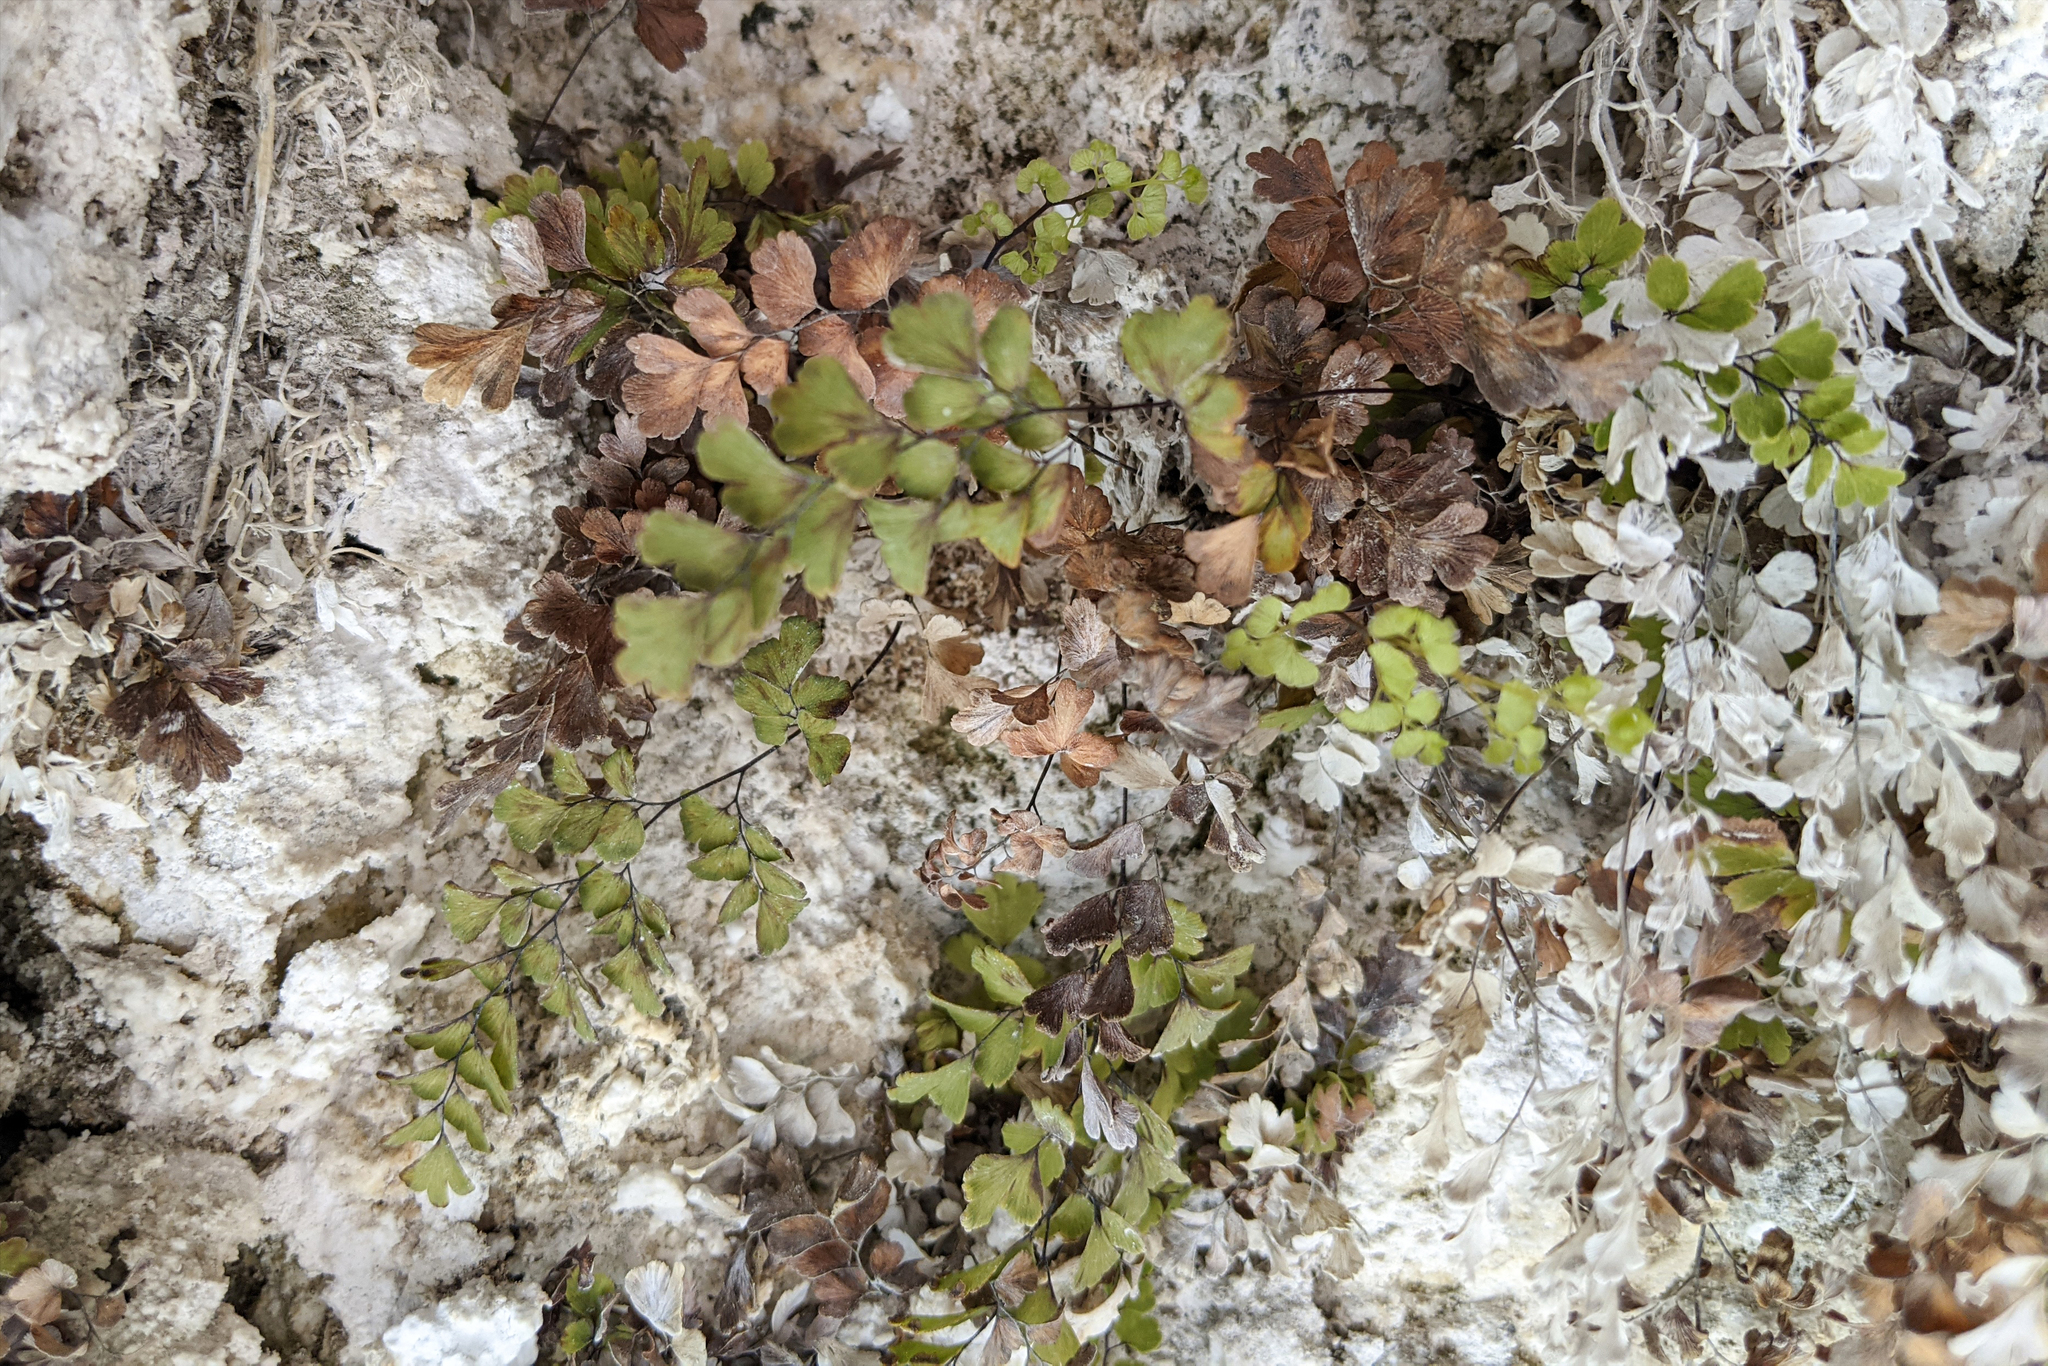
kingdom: Plantae
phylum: Tracheophyta
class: Polypodiopsida
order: Polypodiales
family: Pteridaceae
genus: Adiantum
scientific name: Adiantum capillus-veneris
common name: Maidenhair fern
